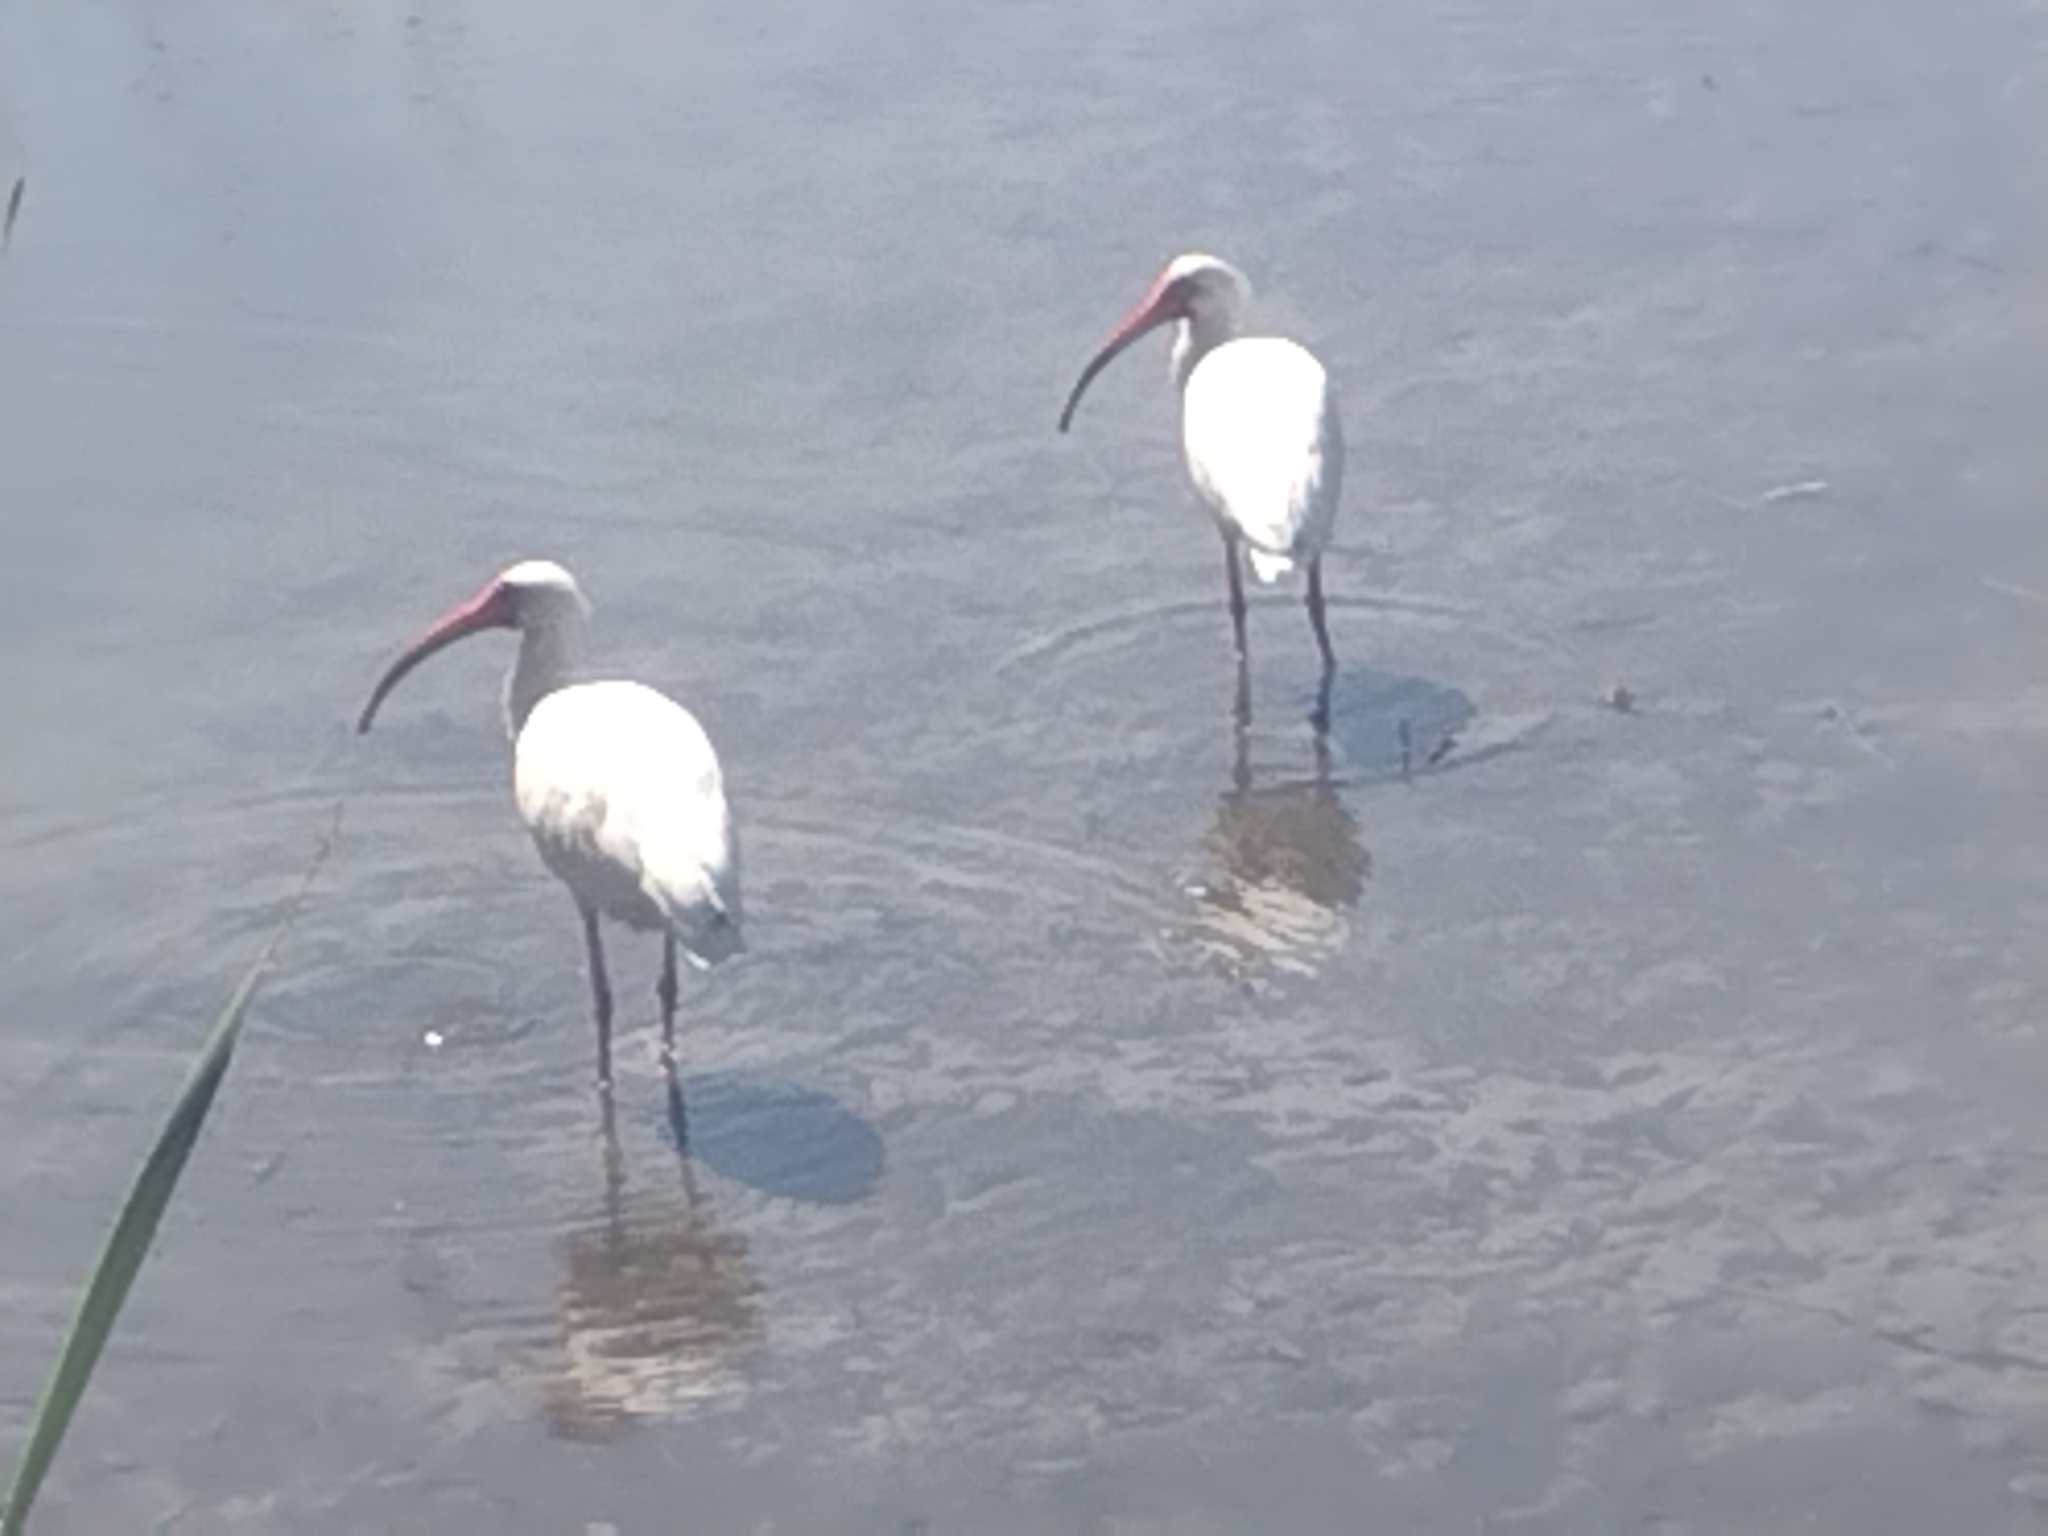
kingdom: Animalia
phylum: Chordata
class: Aves
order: Pelecaniformes
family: Threskiornithidae
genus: Eudocimus
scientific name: Eudocimus albus
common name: White ibis
